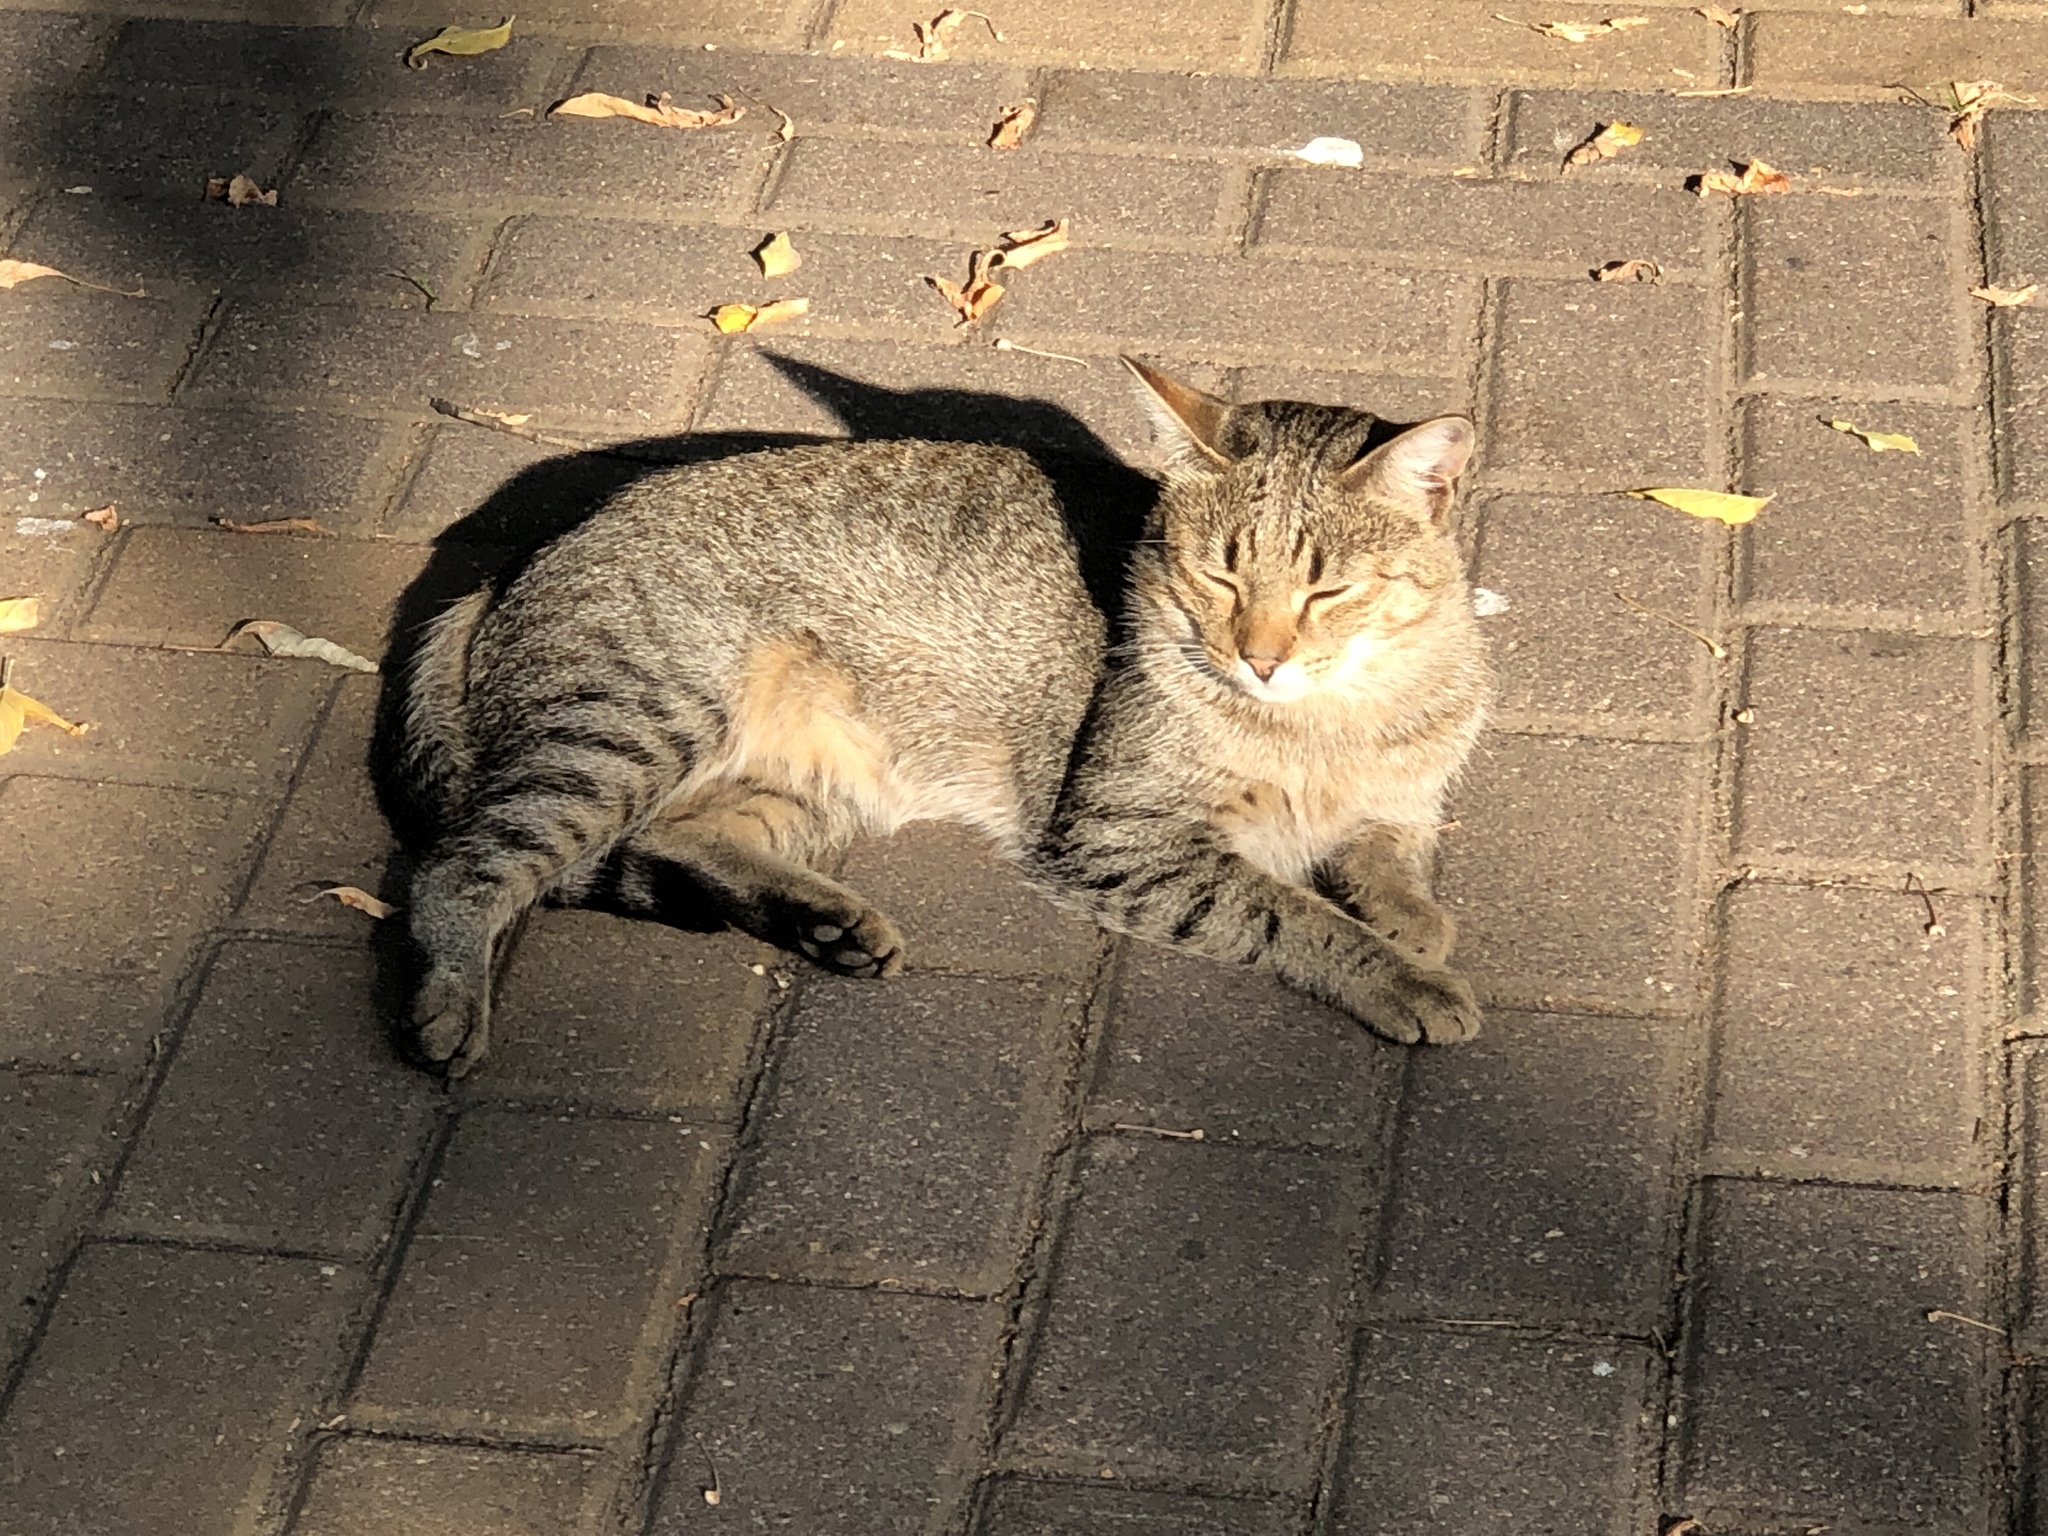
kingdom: Animalia
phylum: Chordata
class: Mammalia
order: Carnivora
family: Felidae
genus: Felis
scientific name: Felis catus
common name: Domestic cat
